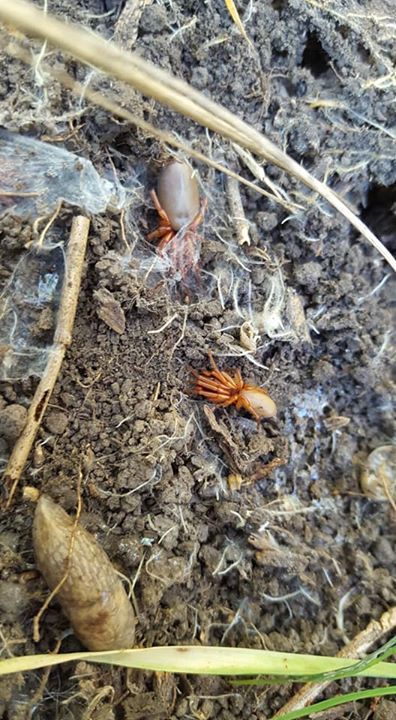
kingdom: Animalia
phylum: Mollusca
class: Gastropoda
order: Stylommatophora
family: Agriolimacidae
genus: Deroceras
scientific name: Deroceras reticulatum
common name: Gray field slug
